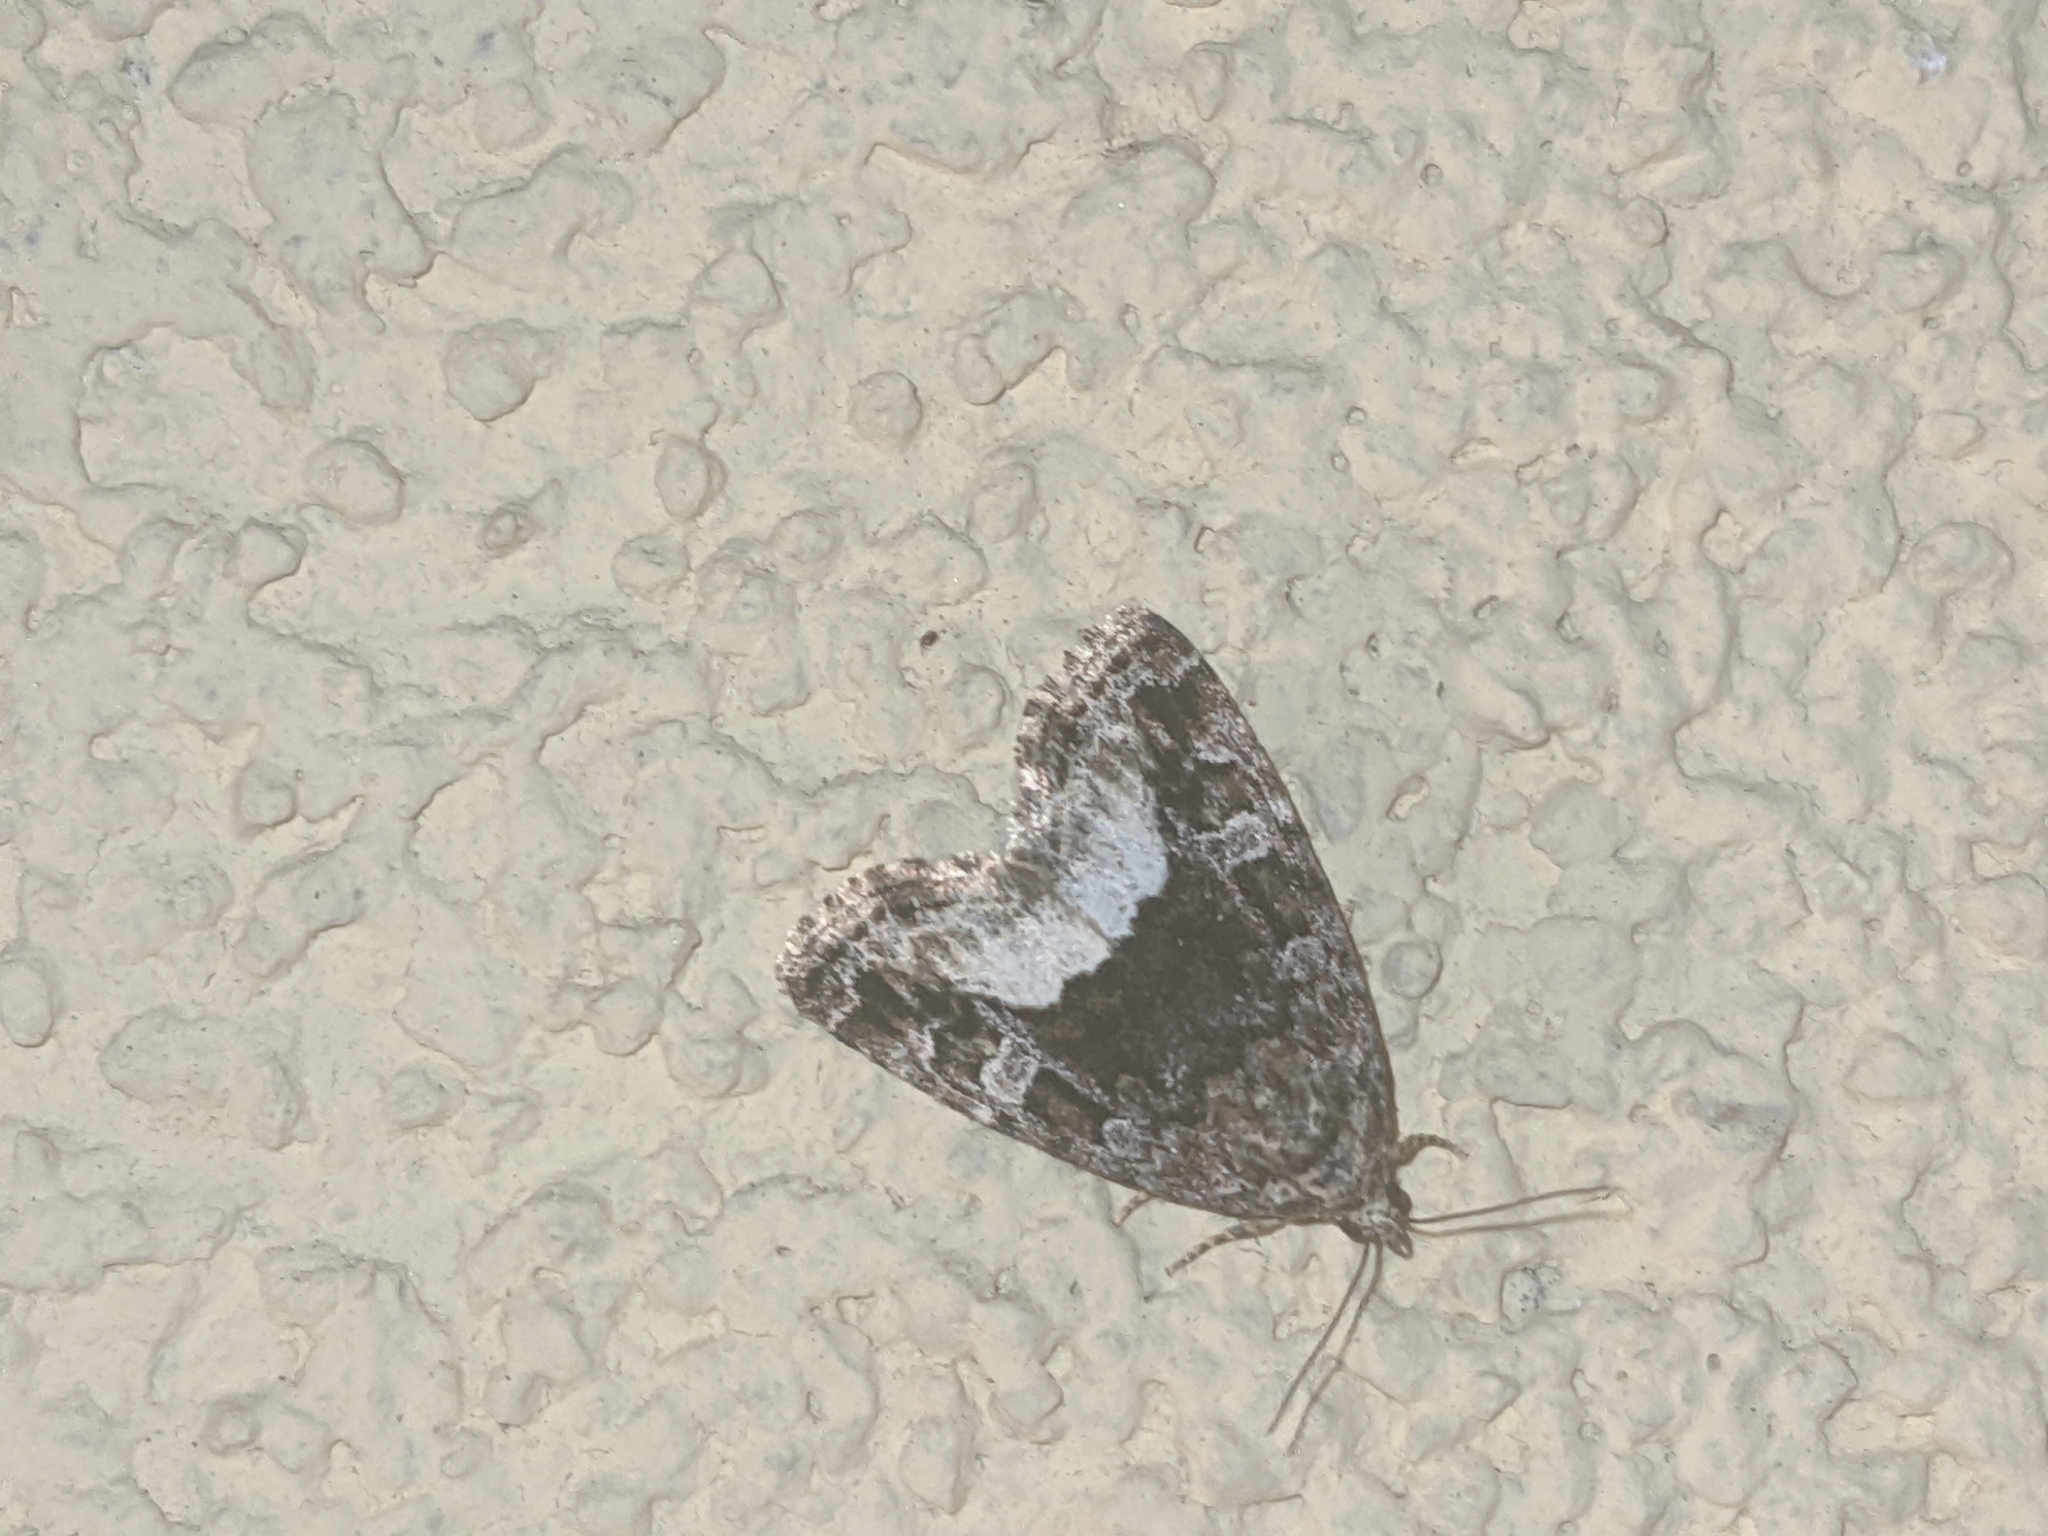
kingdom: Animalia
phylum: Arthropoda
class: Insecta
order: Lepidoptera
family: Noctuidae
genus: Deltote
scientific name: Deltote pygarga
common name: Marbled white spot
